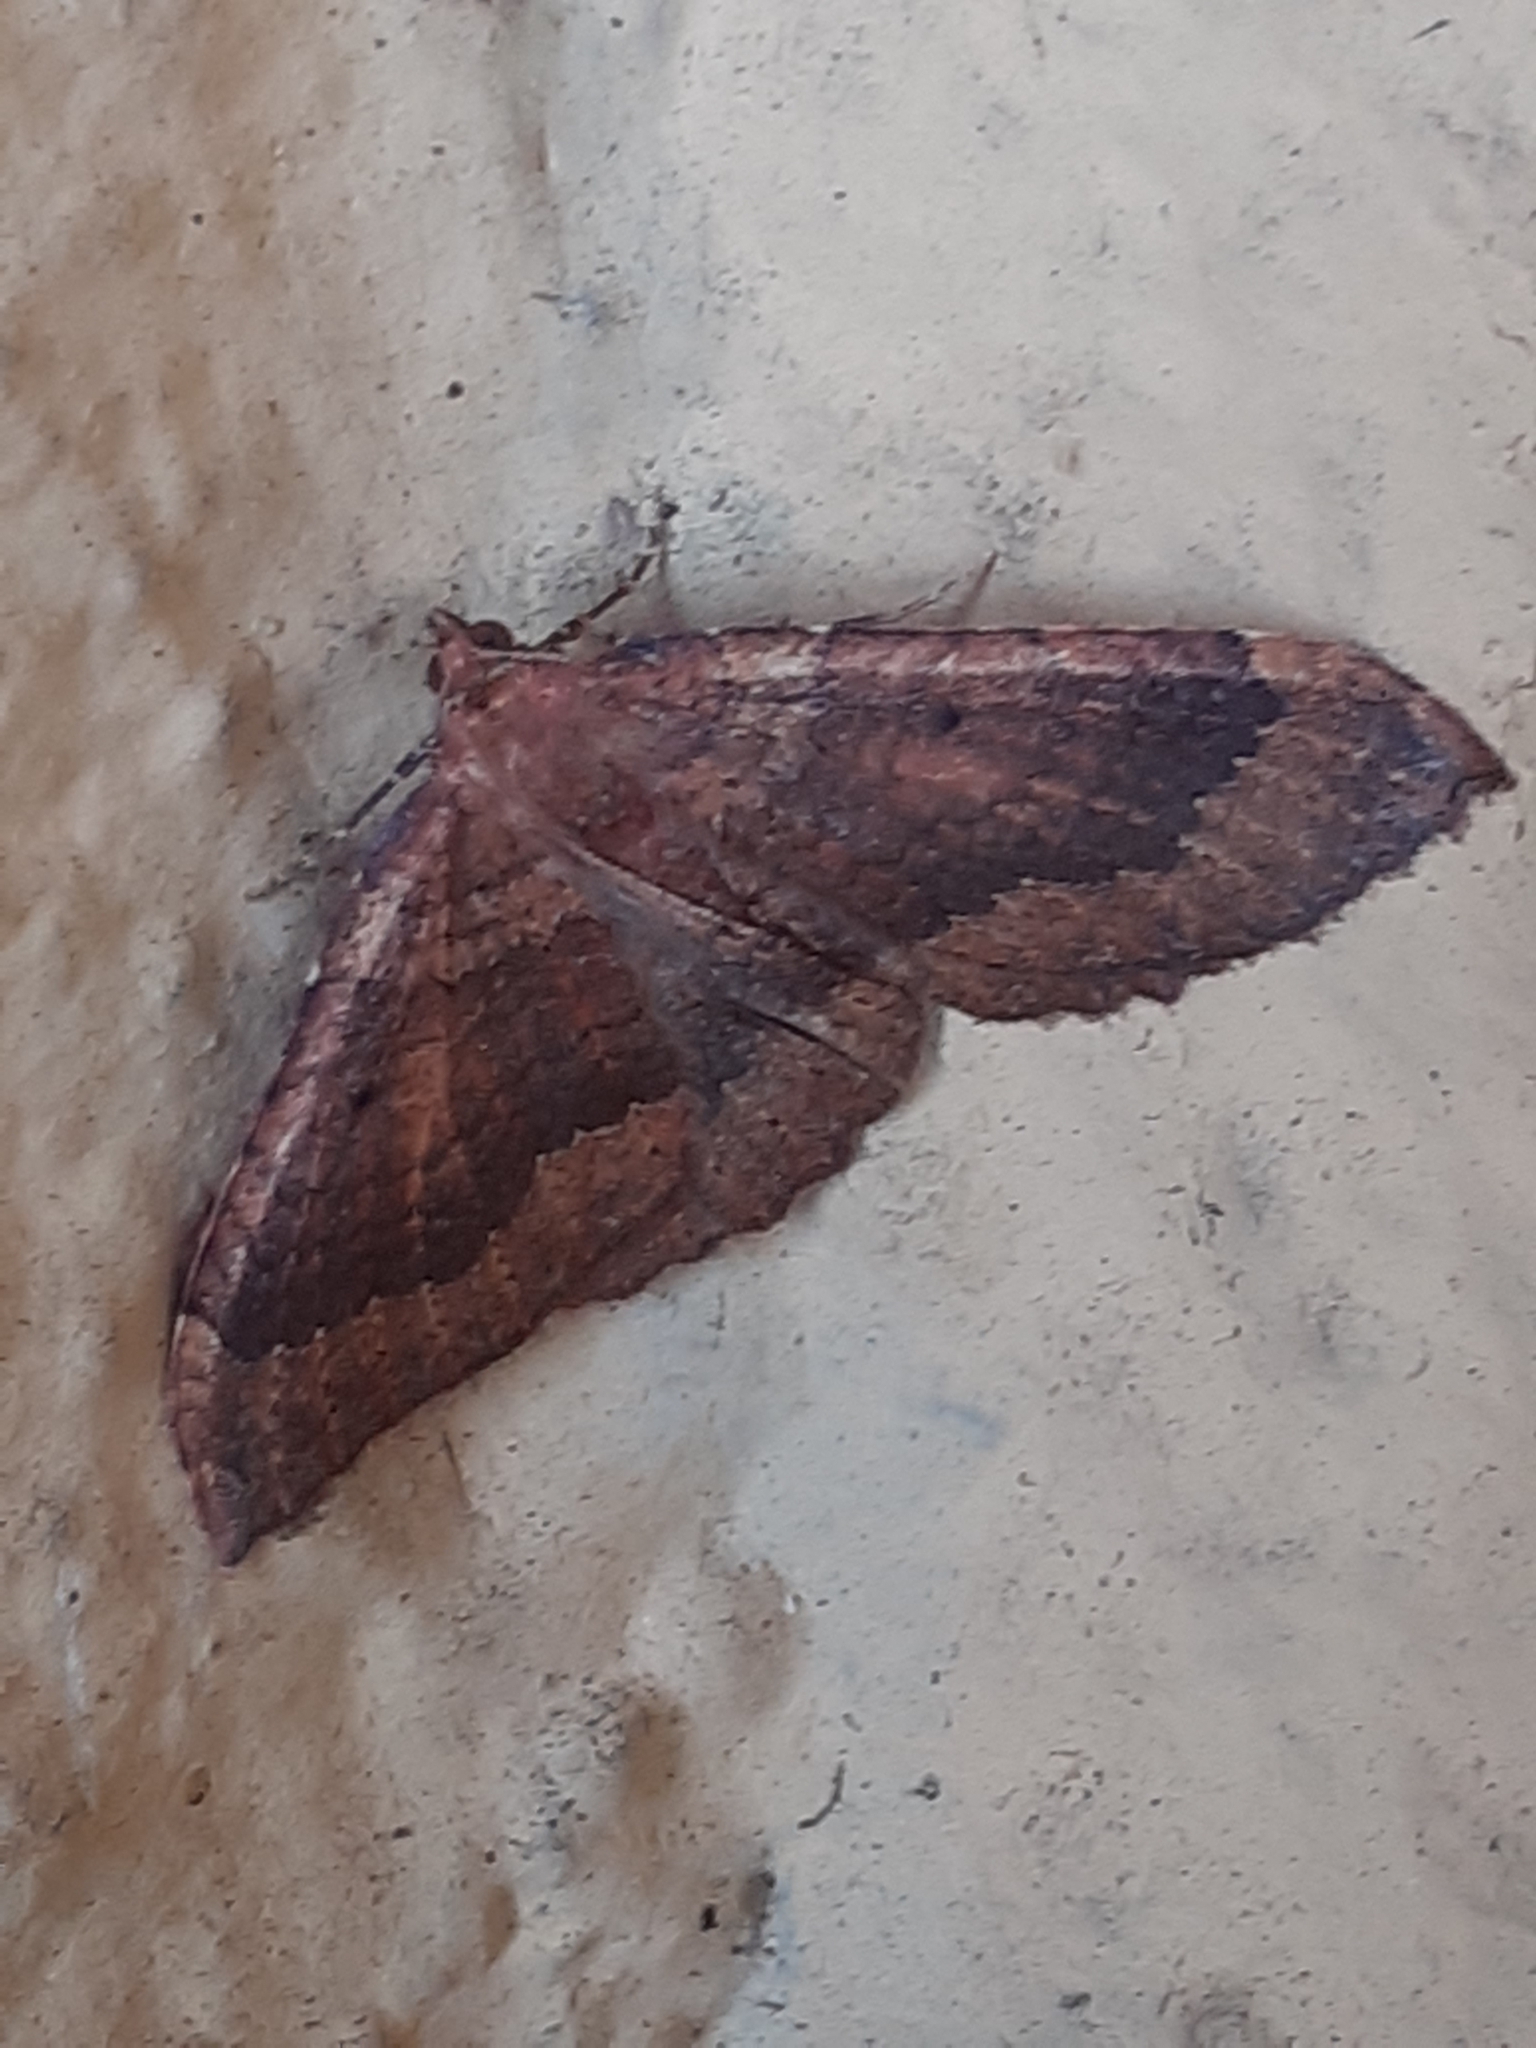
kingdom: Animalia
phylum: Arthropoda
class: Insecta
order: Lepidoptera
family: Geometridae
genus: Herbulotina
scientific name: Herbulotina grandis
